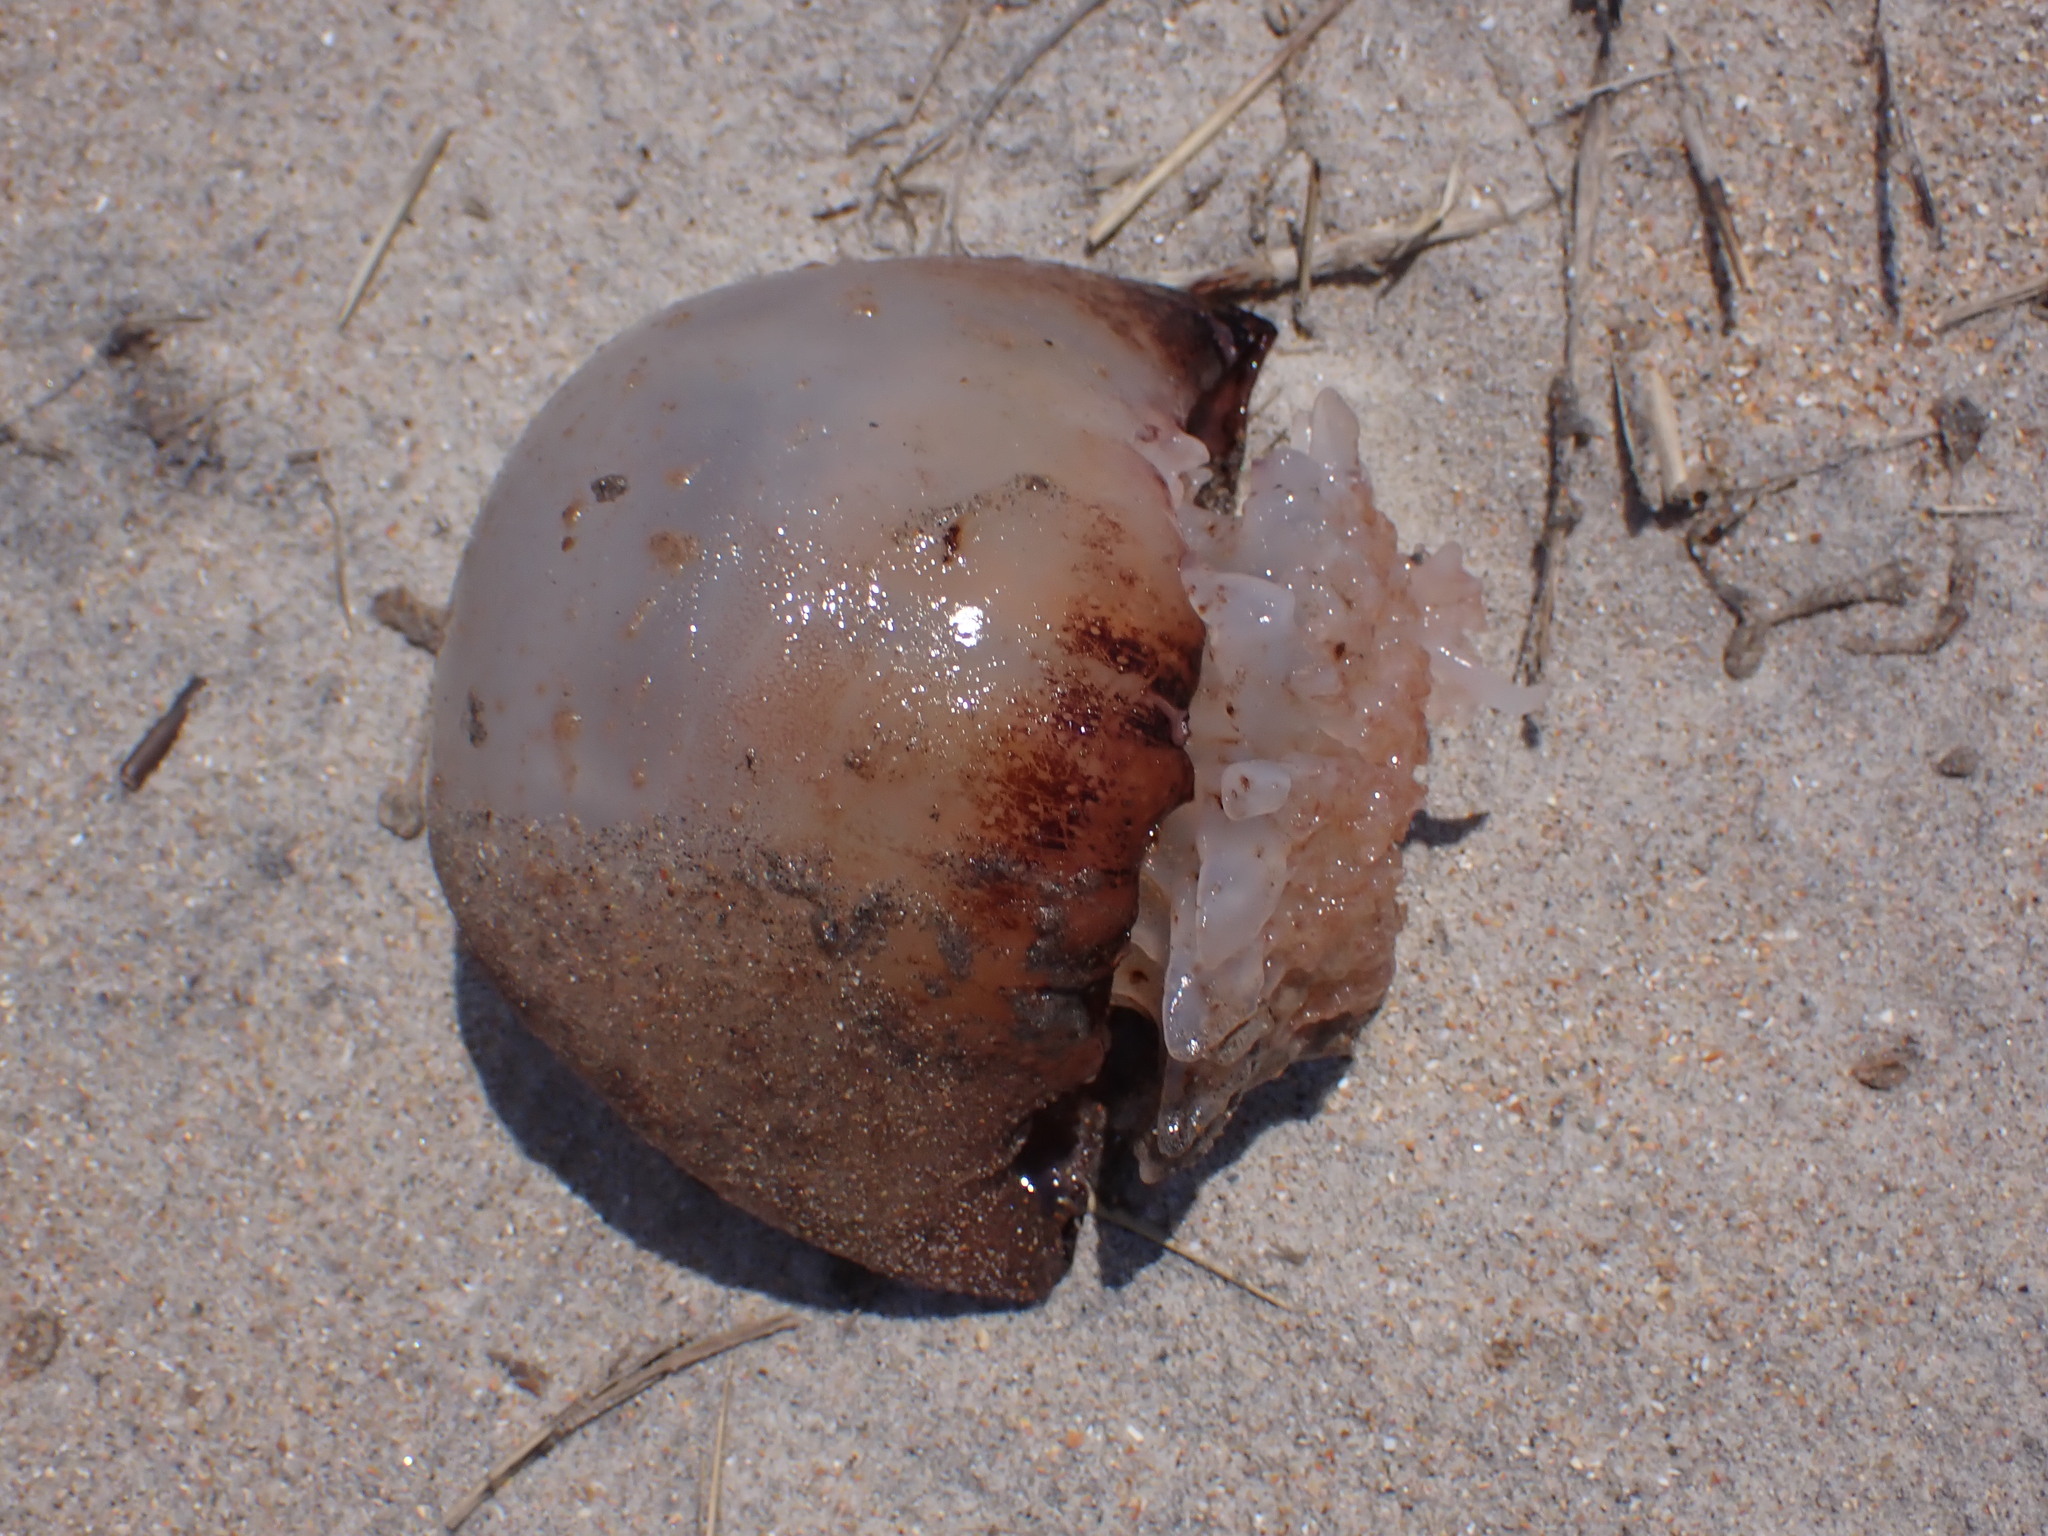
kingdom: Animalia
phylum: Cnidaria
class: Scyphozoa
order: Rhizostomeae
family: Stomolophidae
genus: Stomolophus
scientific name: Stomolophus meleagris
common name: Cabbagehead
